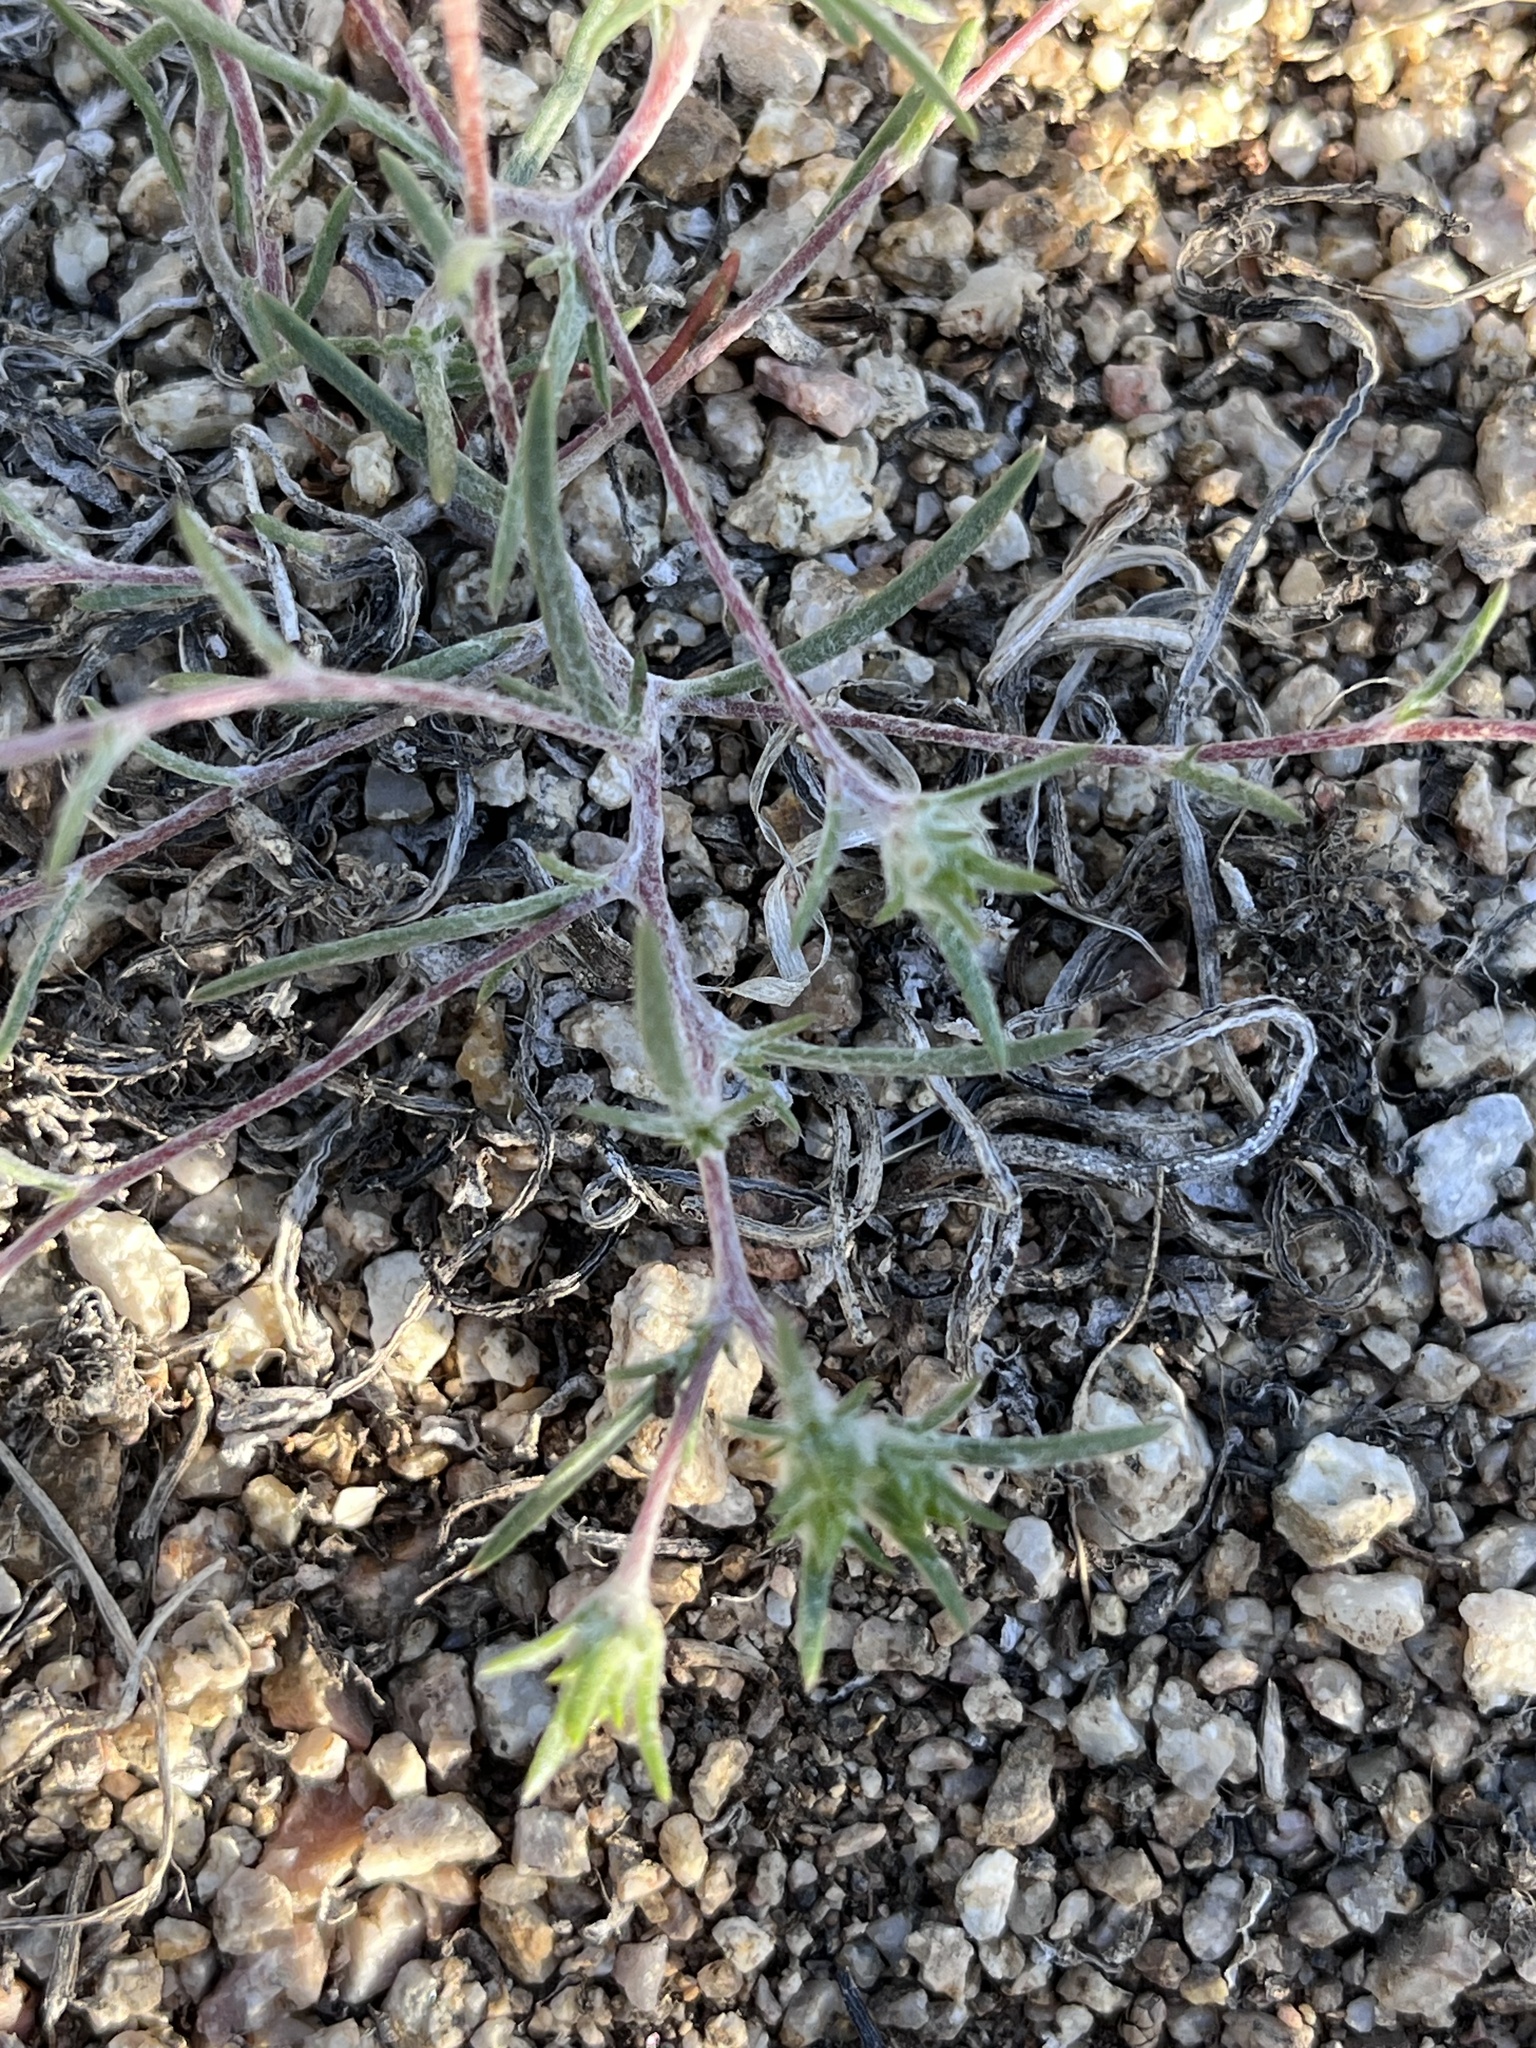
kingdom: Plantae
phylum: Tracheophyta
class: Magnoliopsida
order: Ericales
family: Polemoniaceae
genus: Eriastrum
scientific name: Eriastrum diffusum
